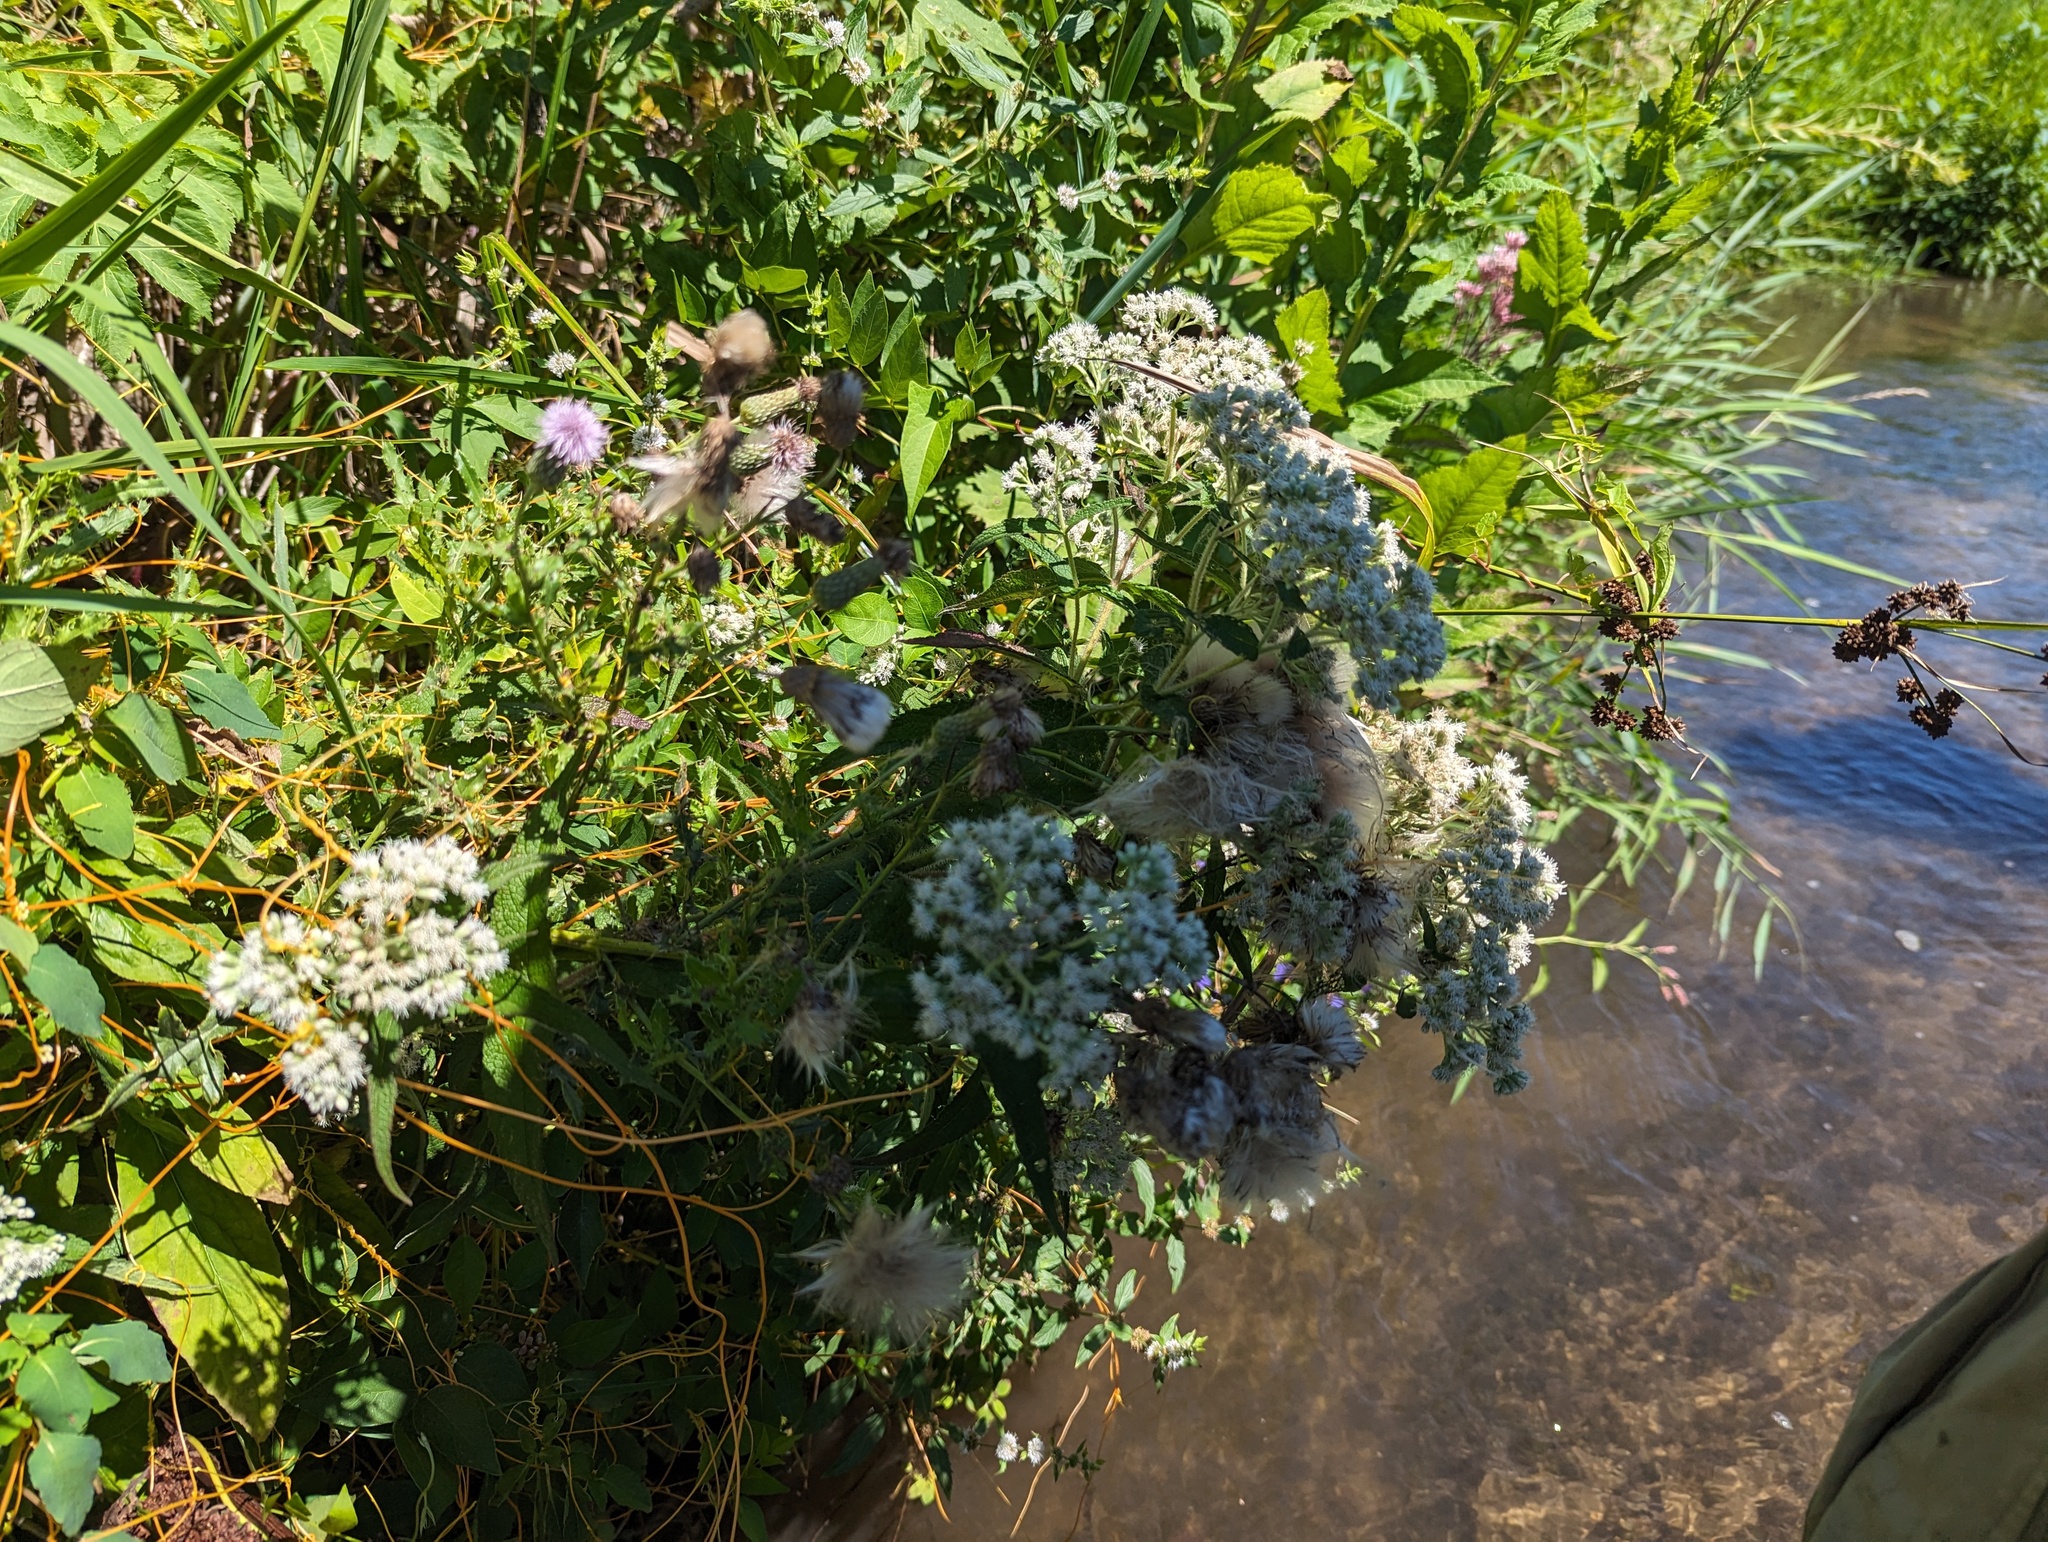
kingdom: Plantae
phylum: Tracheophyta
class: Magnoliopsida
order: Asterales
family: Asteraceae
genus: Eupatorium
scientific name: Eupatorium perfoliatum
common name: Boneset
